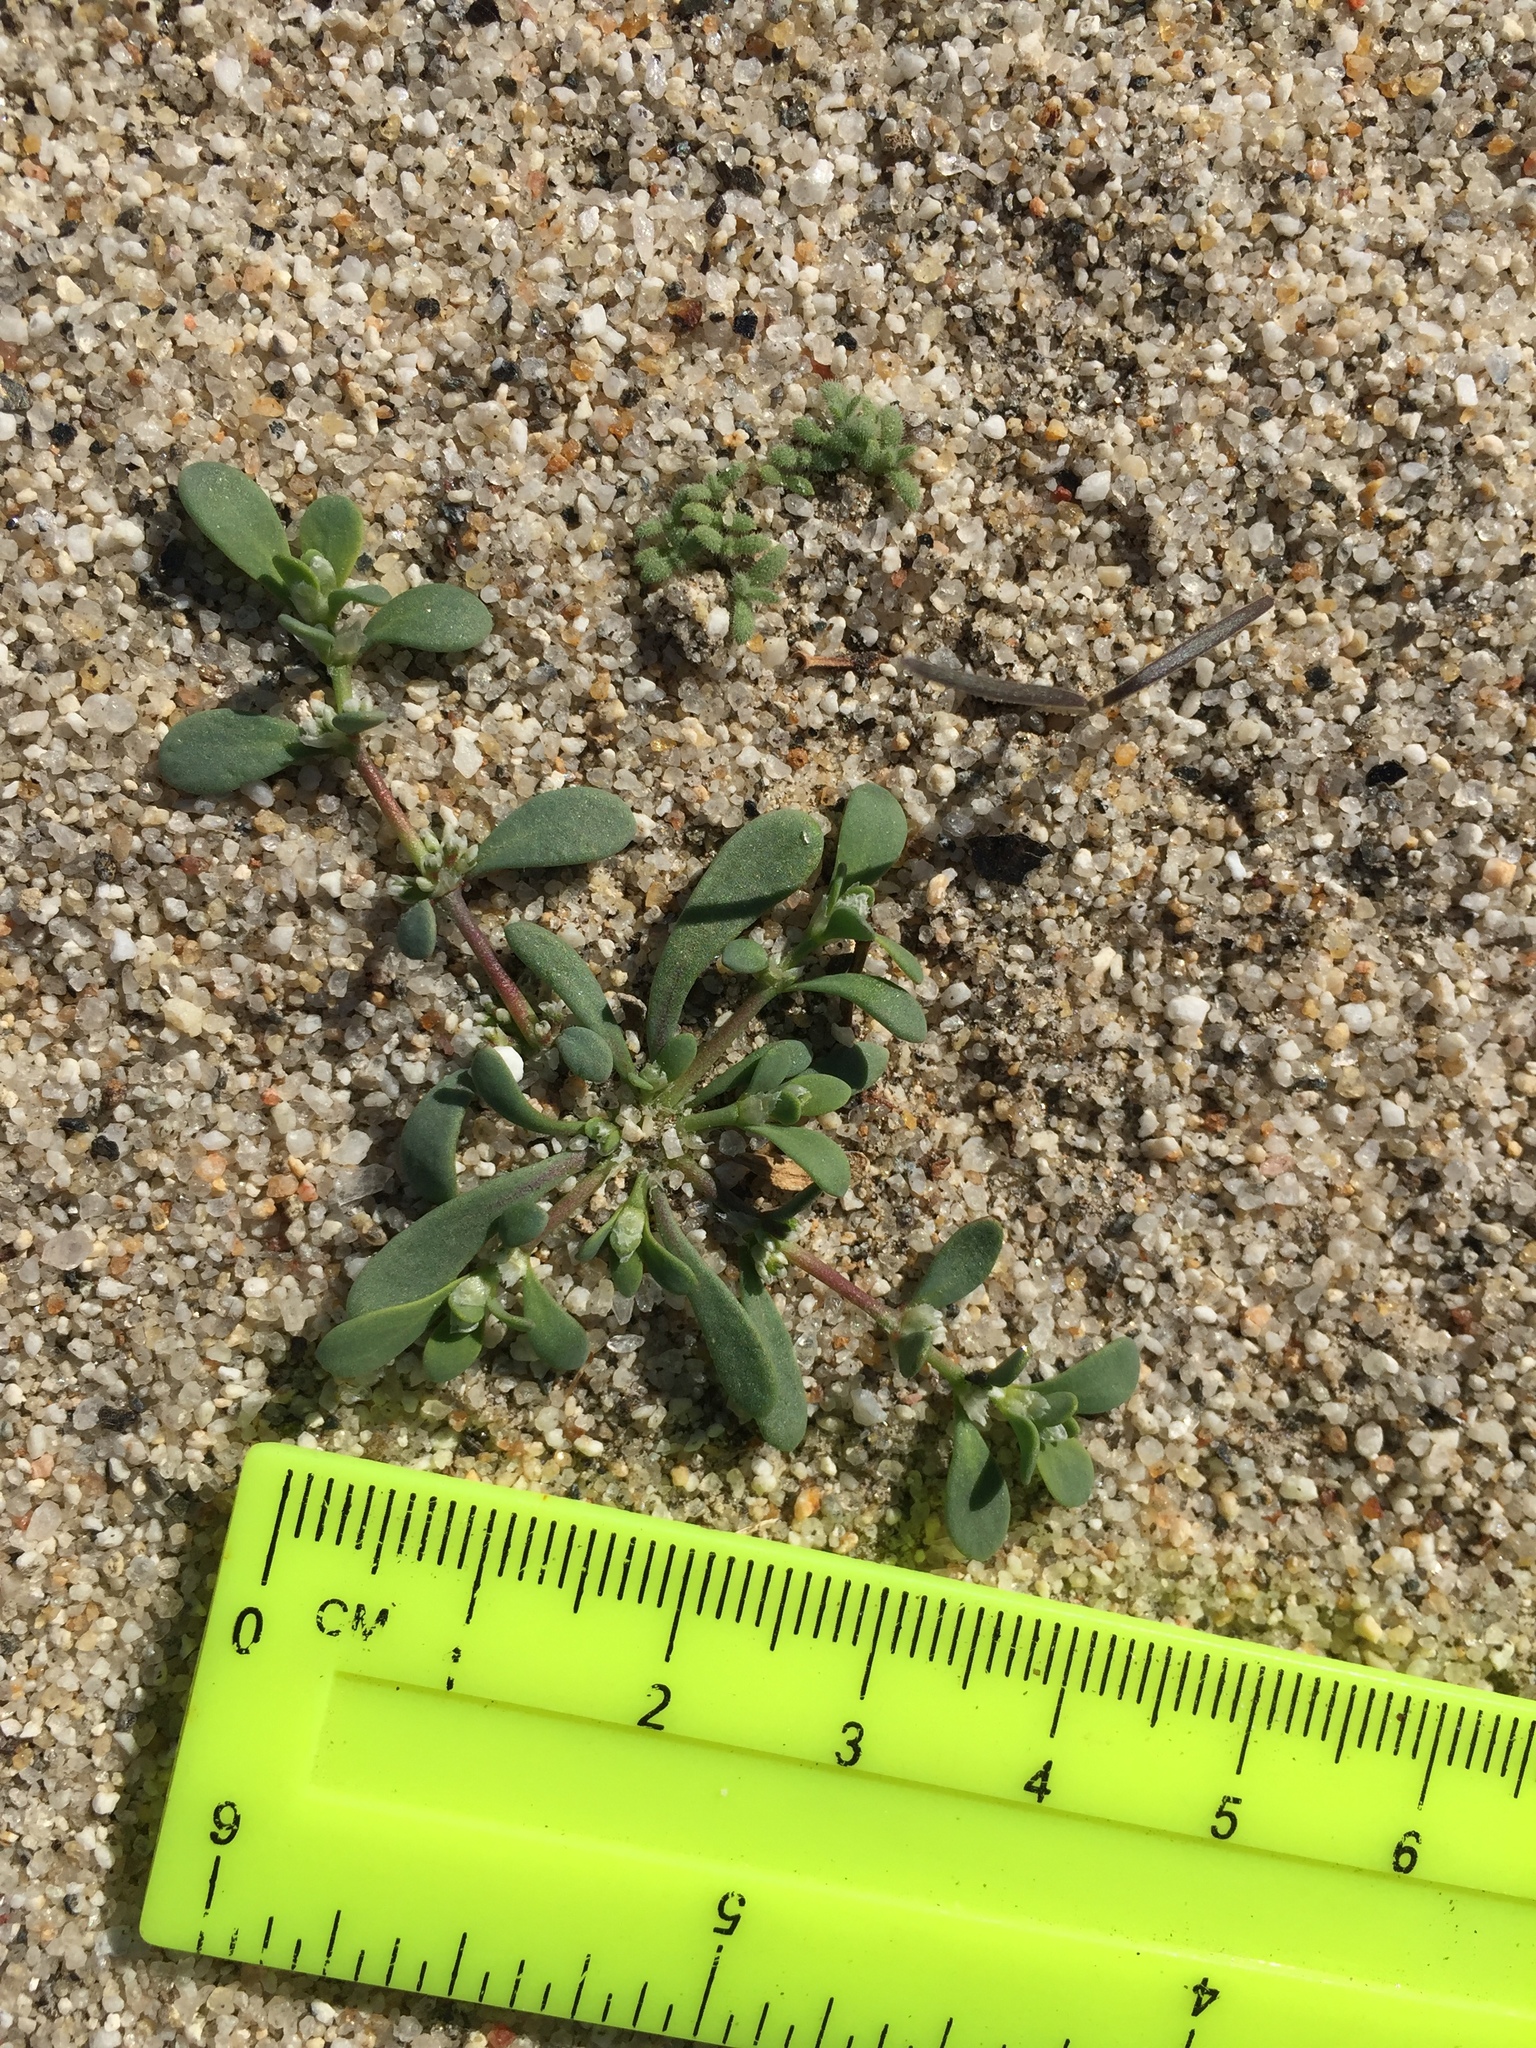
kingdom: Plantae
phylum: Tracheophyta
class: Magnoliopsida
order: Caryophyllales
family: Caryophyllaceae
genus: Achyronychia
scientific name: Achyronychia cooperi
